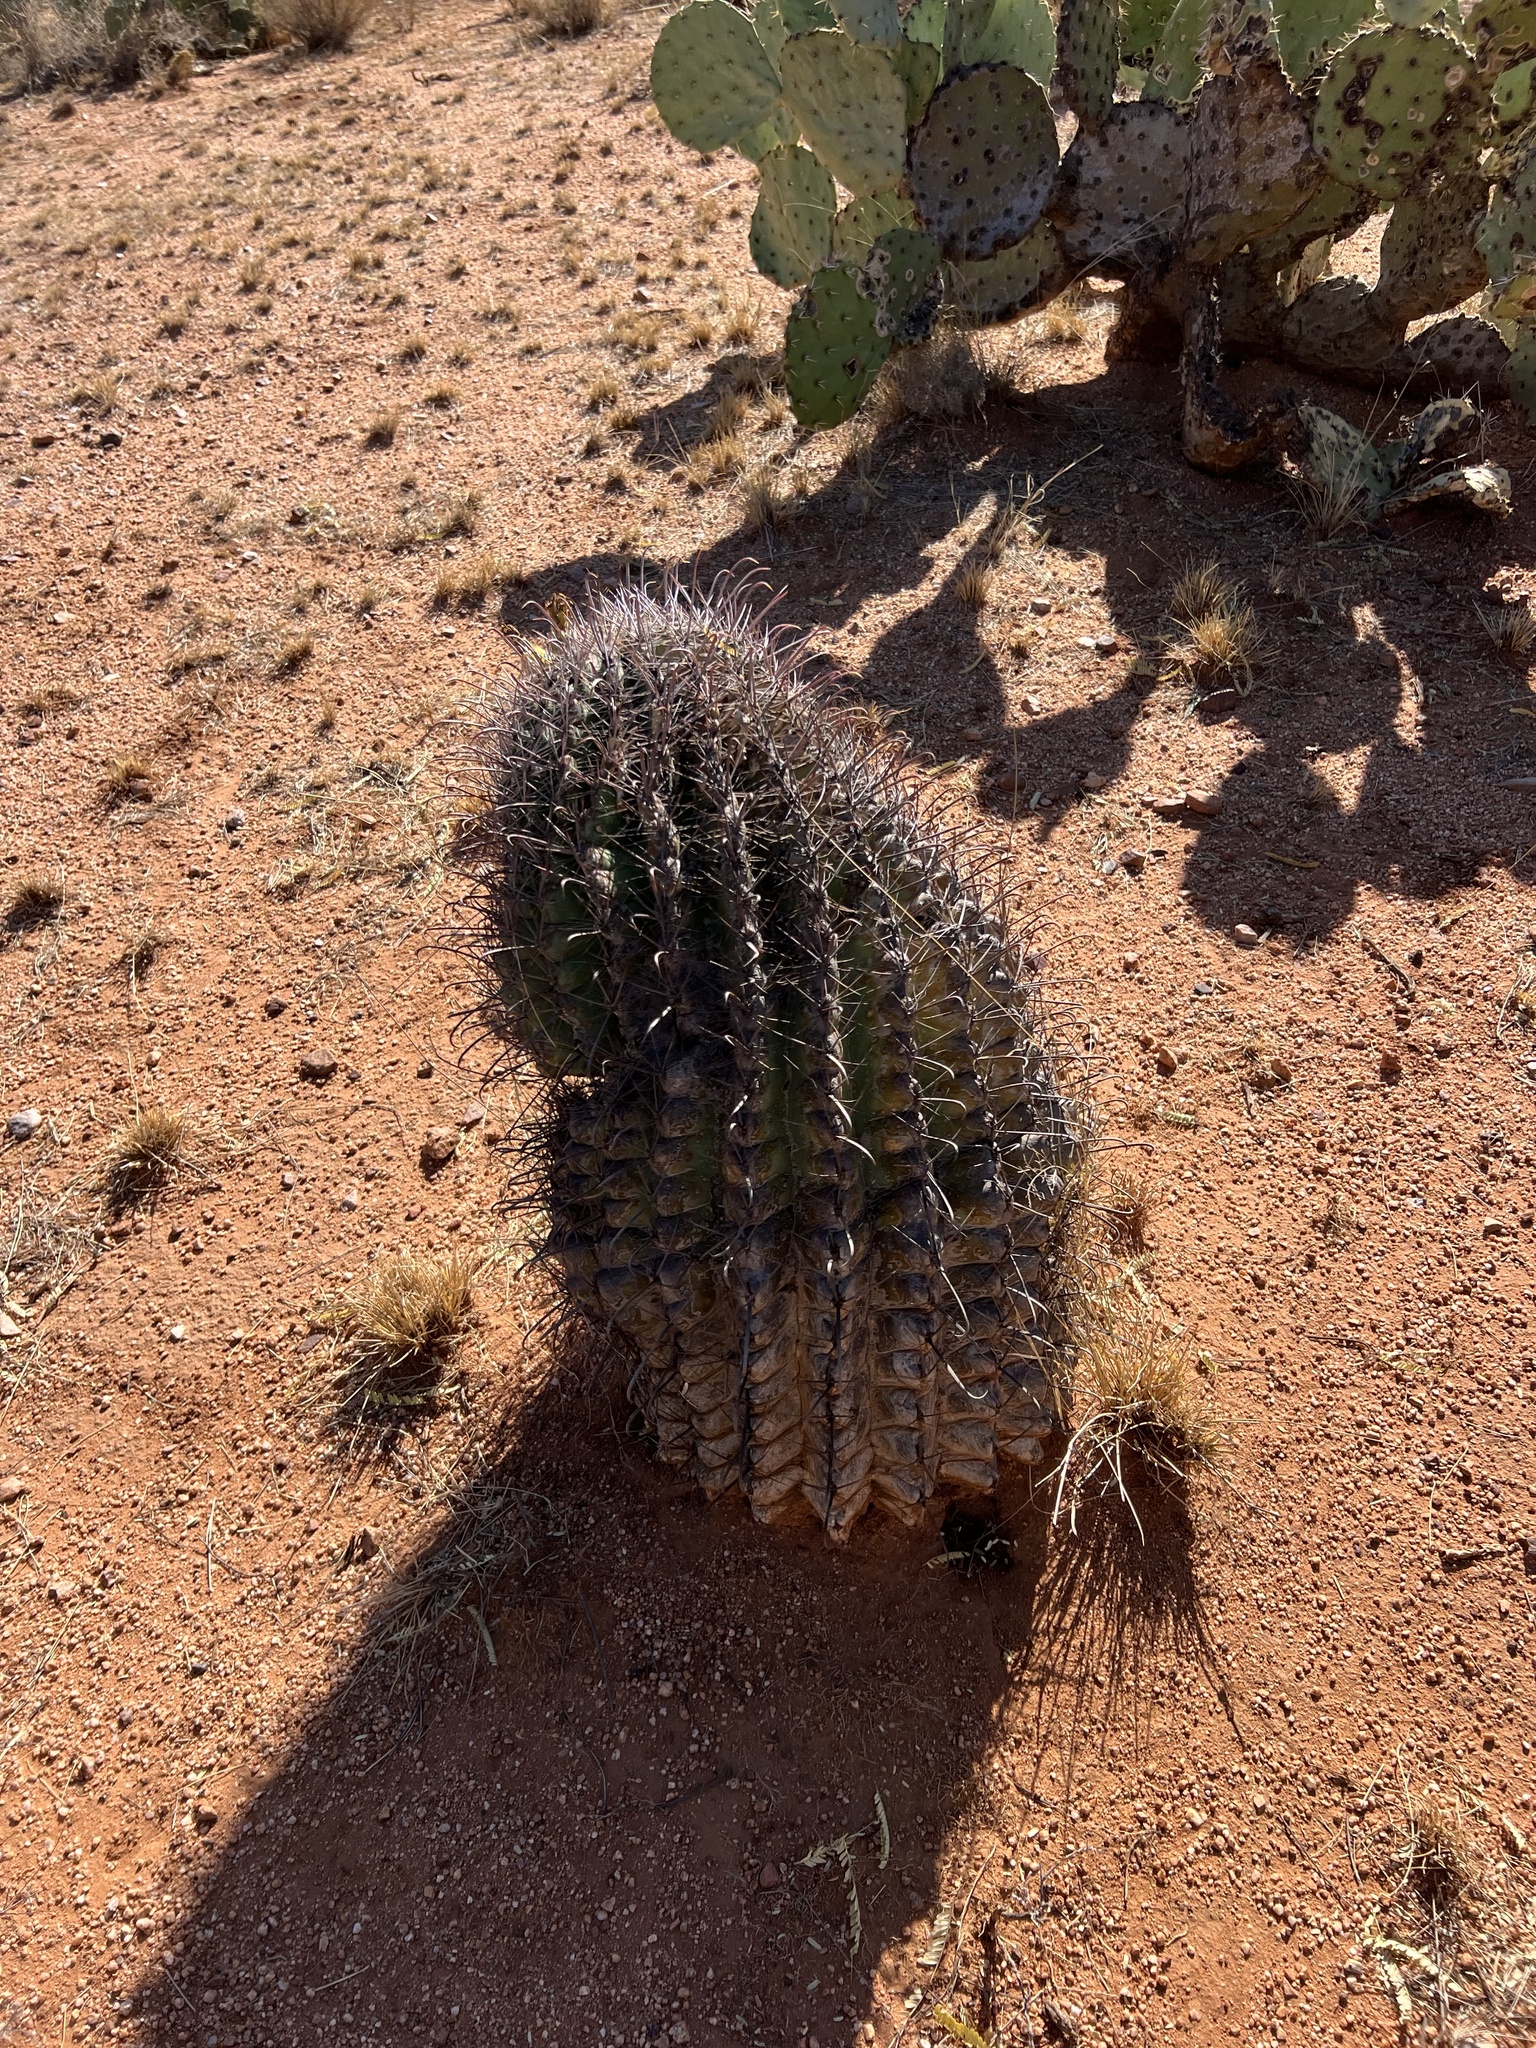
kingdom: Plantae
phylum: Tracheophyta
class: Magnoliopsida
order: Caryophyllales
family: Cactaceae
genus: Ferocactus
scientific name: Ferocactus wislizeni
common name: Candy barrel cactus
